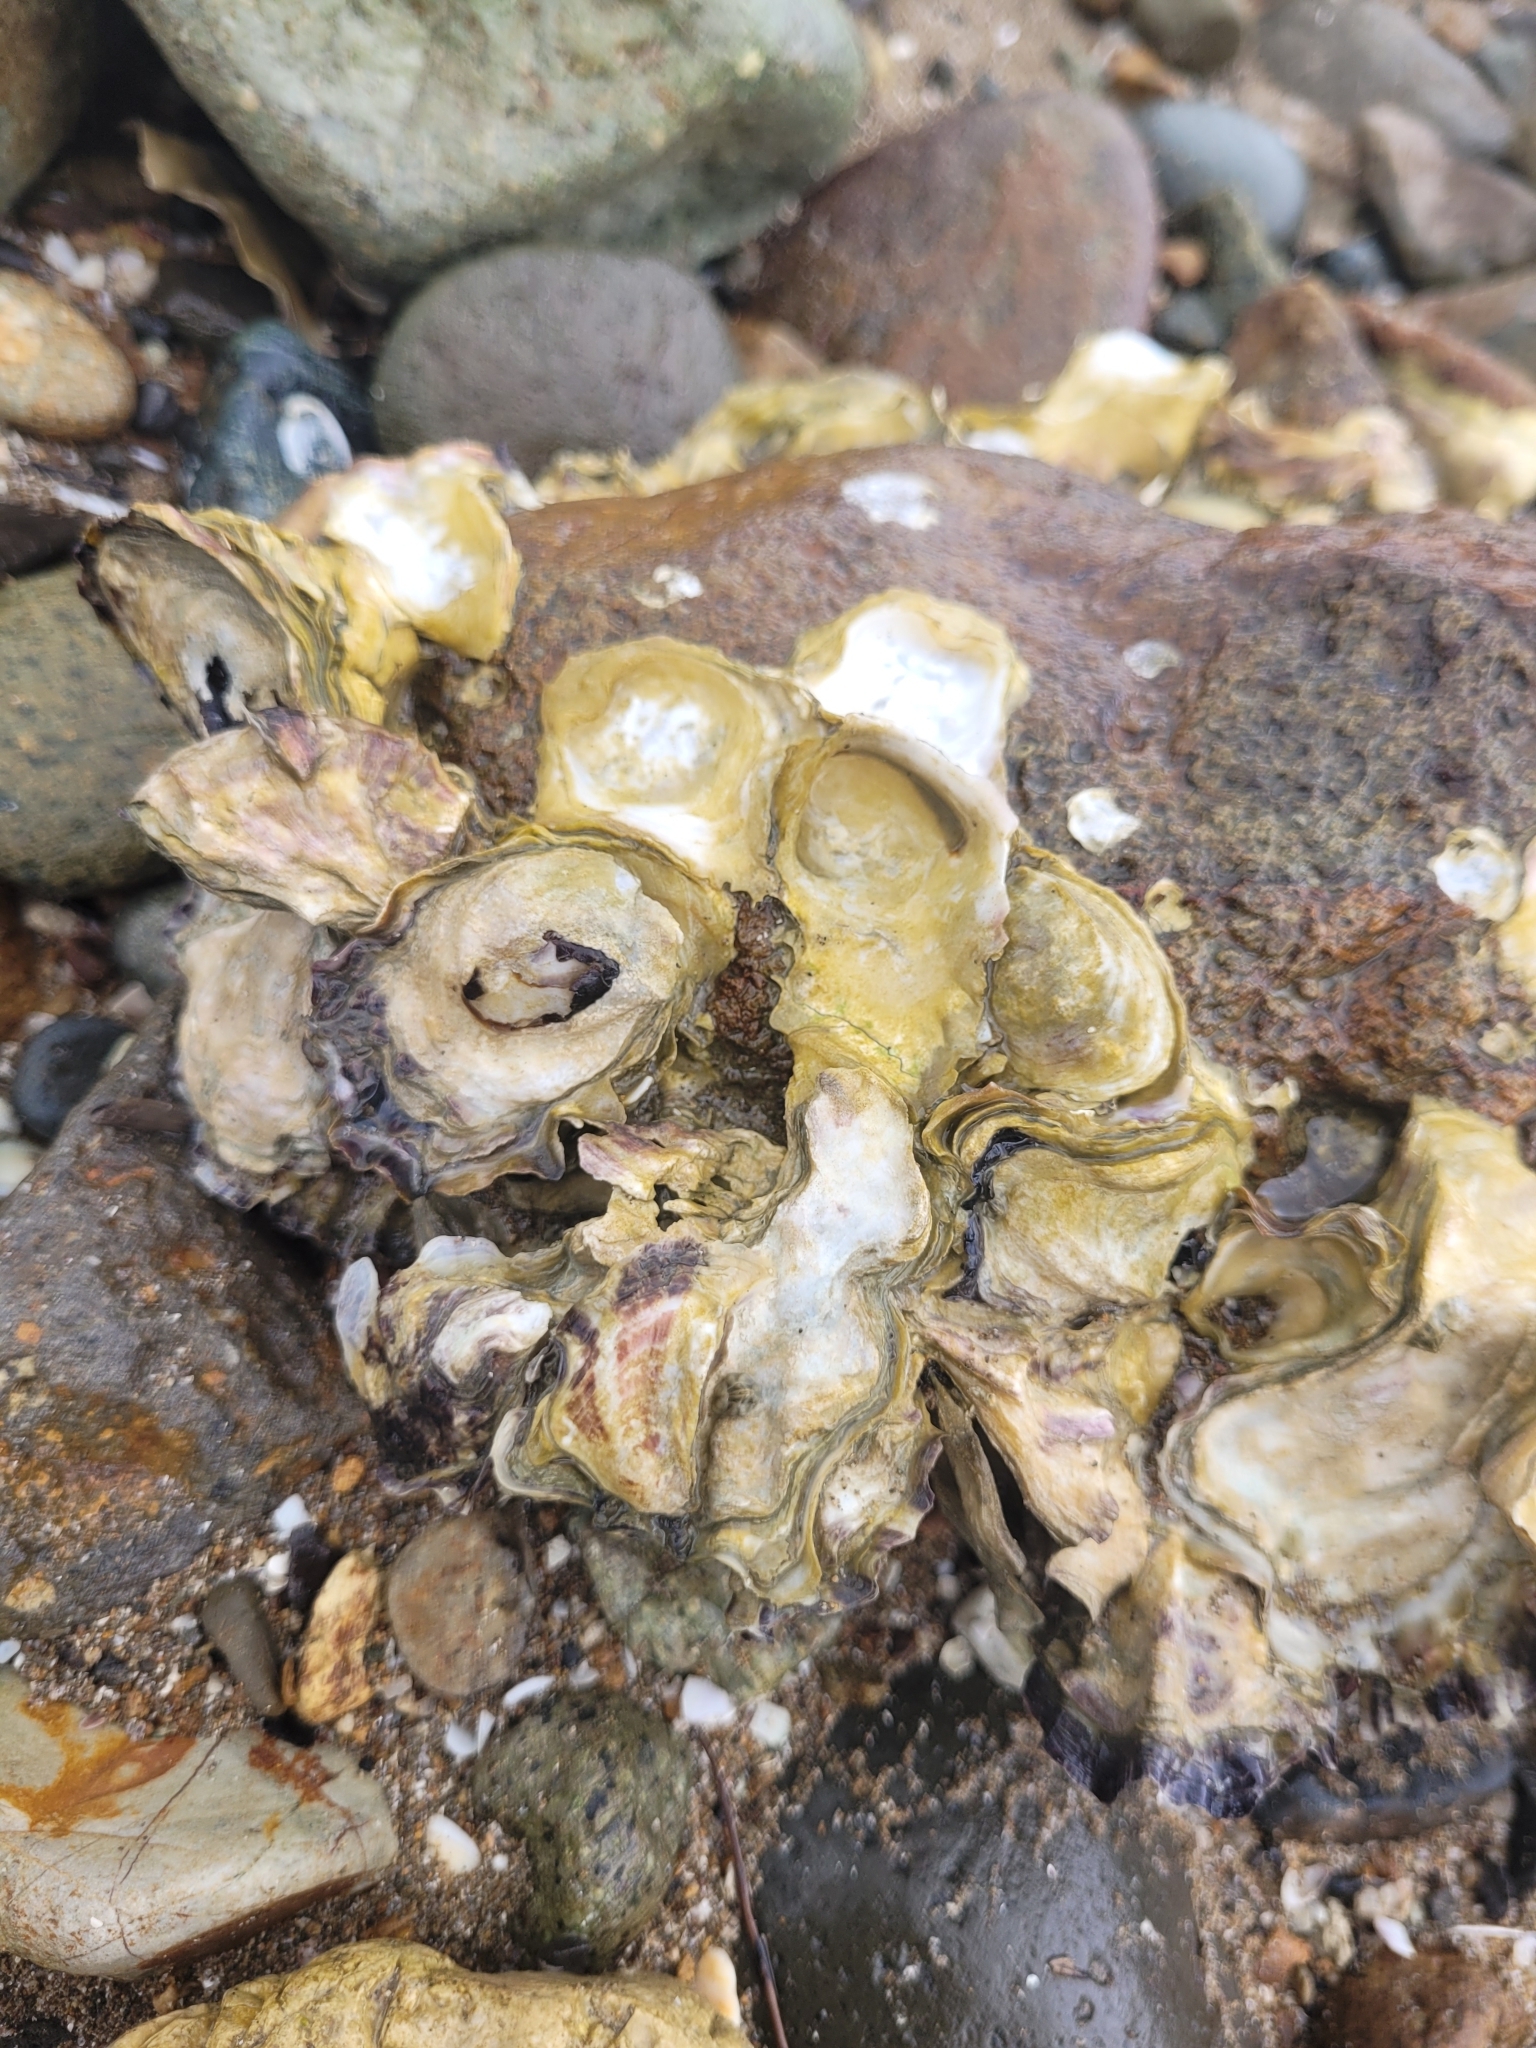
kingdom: Animalia
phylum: Mollusca
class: Bivalvia
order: Ostreida
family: Ostreidae
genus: Saccostrea
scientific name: Saccostrea glomerata
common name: Sydney cupped oyster
